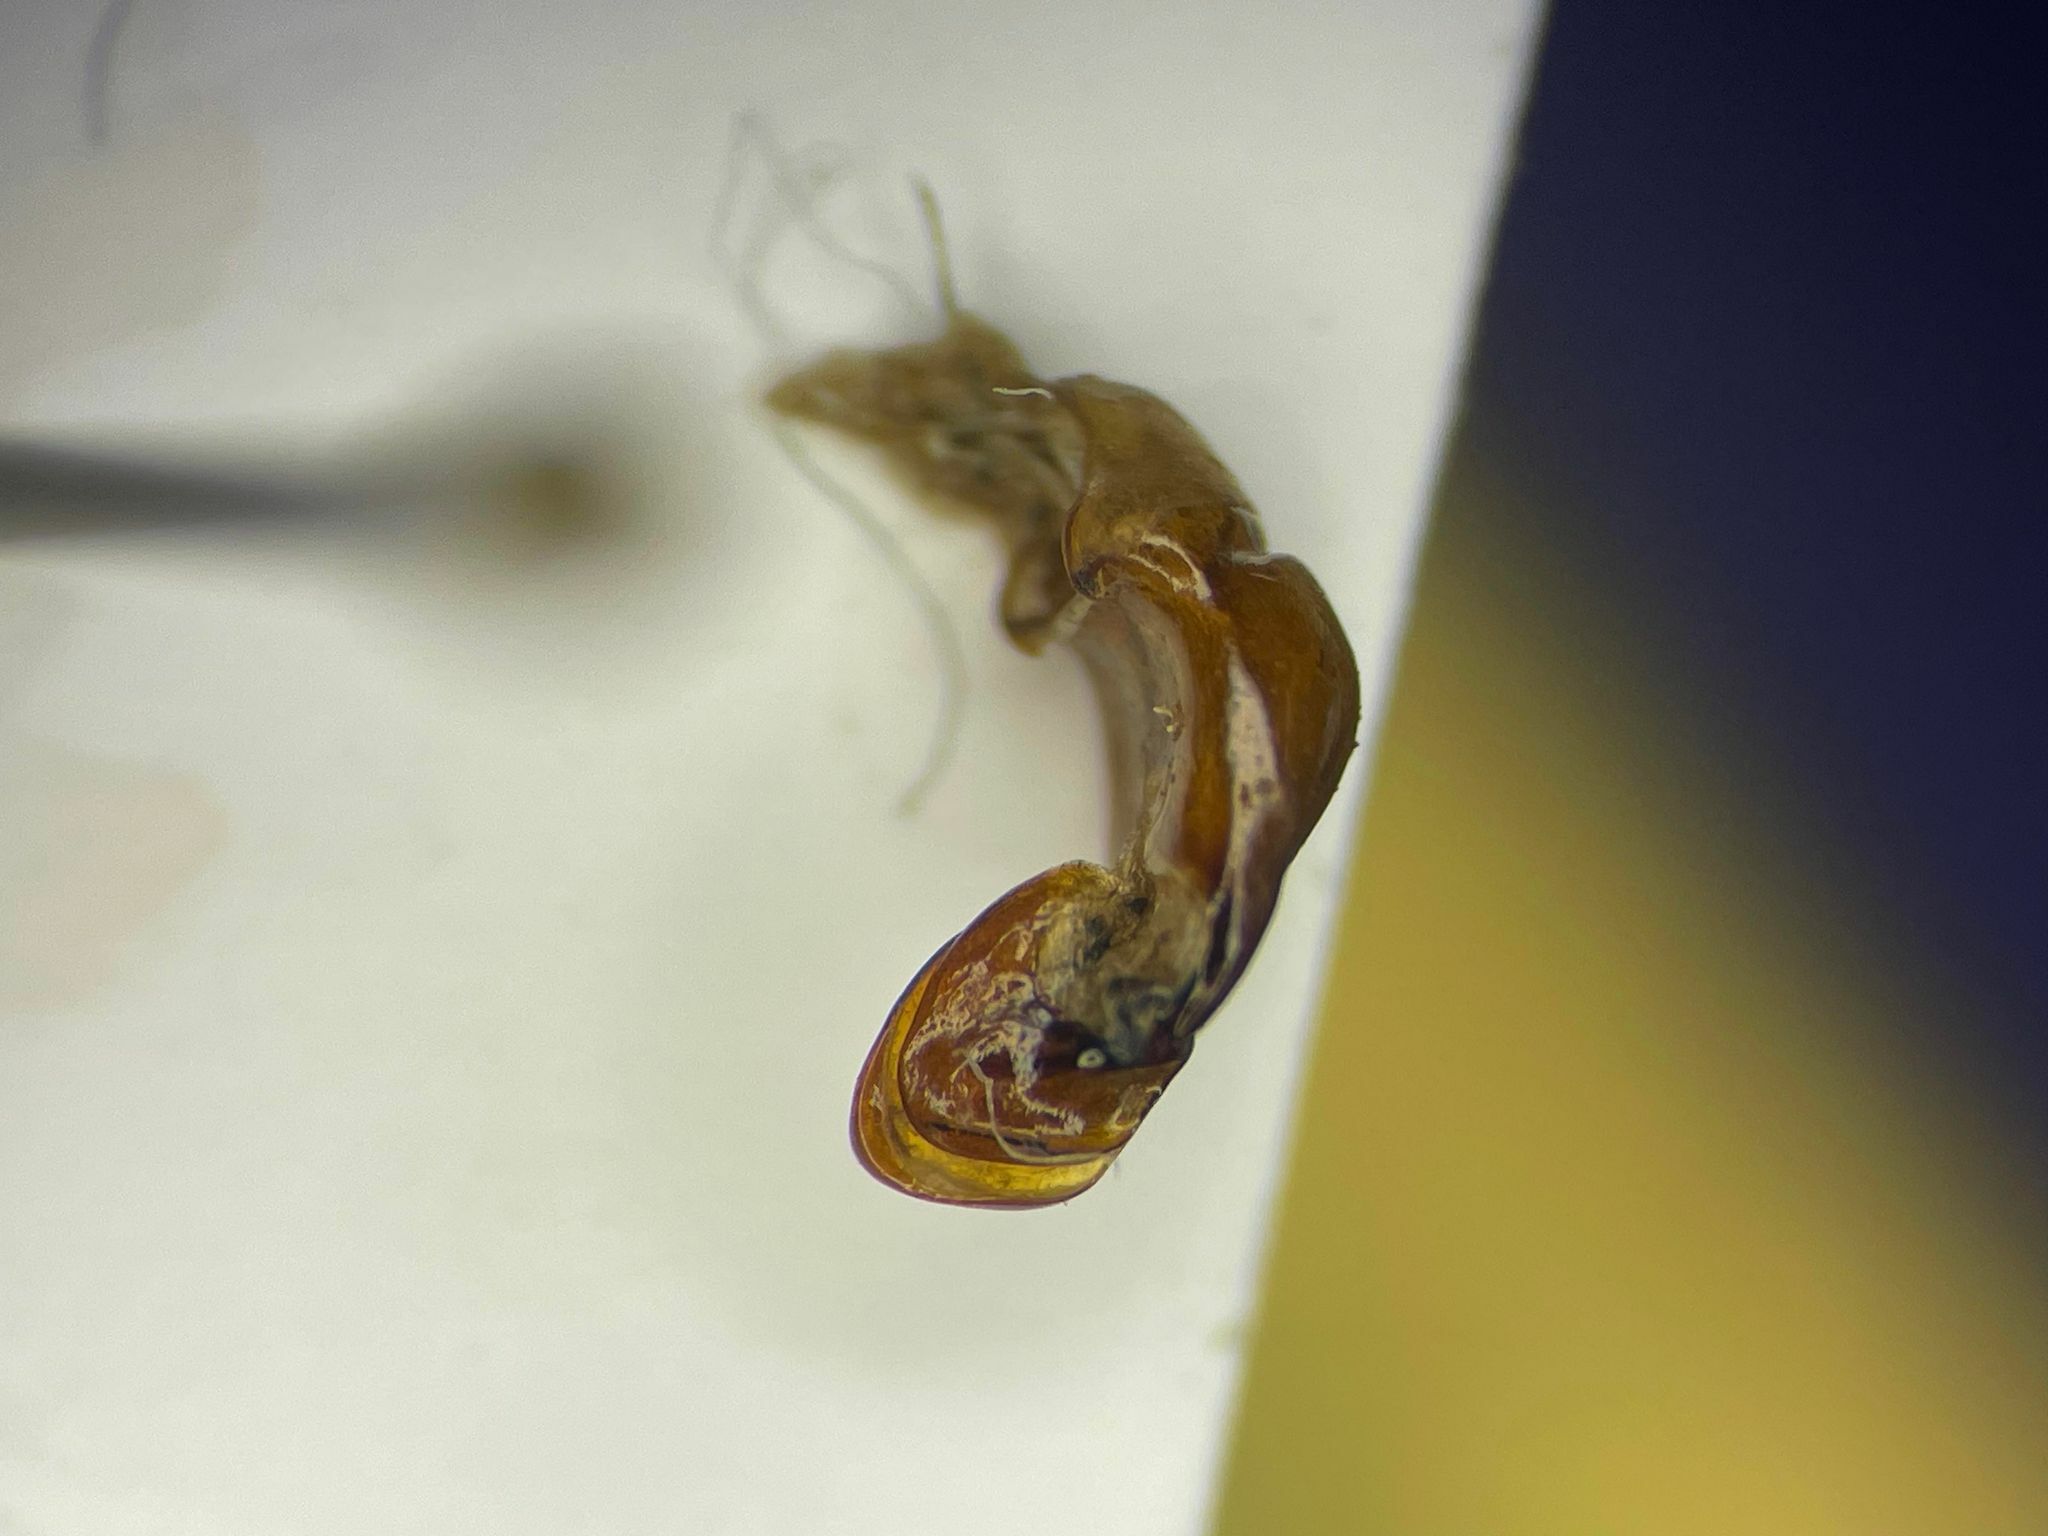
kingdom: Animalia
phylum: Arthropoda
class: Insecta
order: Coleoptera
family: Scarabaeidae
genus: Serica
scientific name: Serica atracapilla
